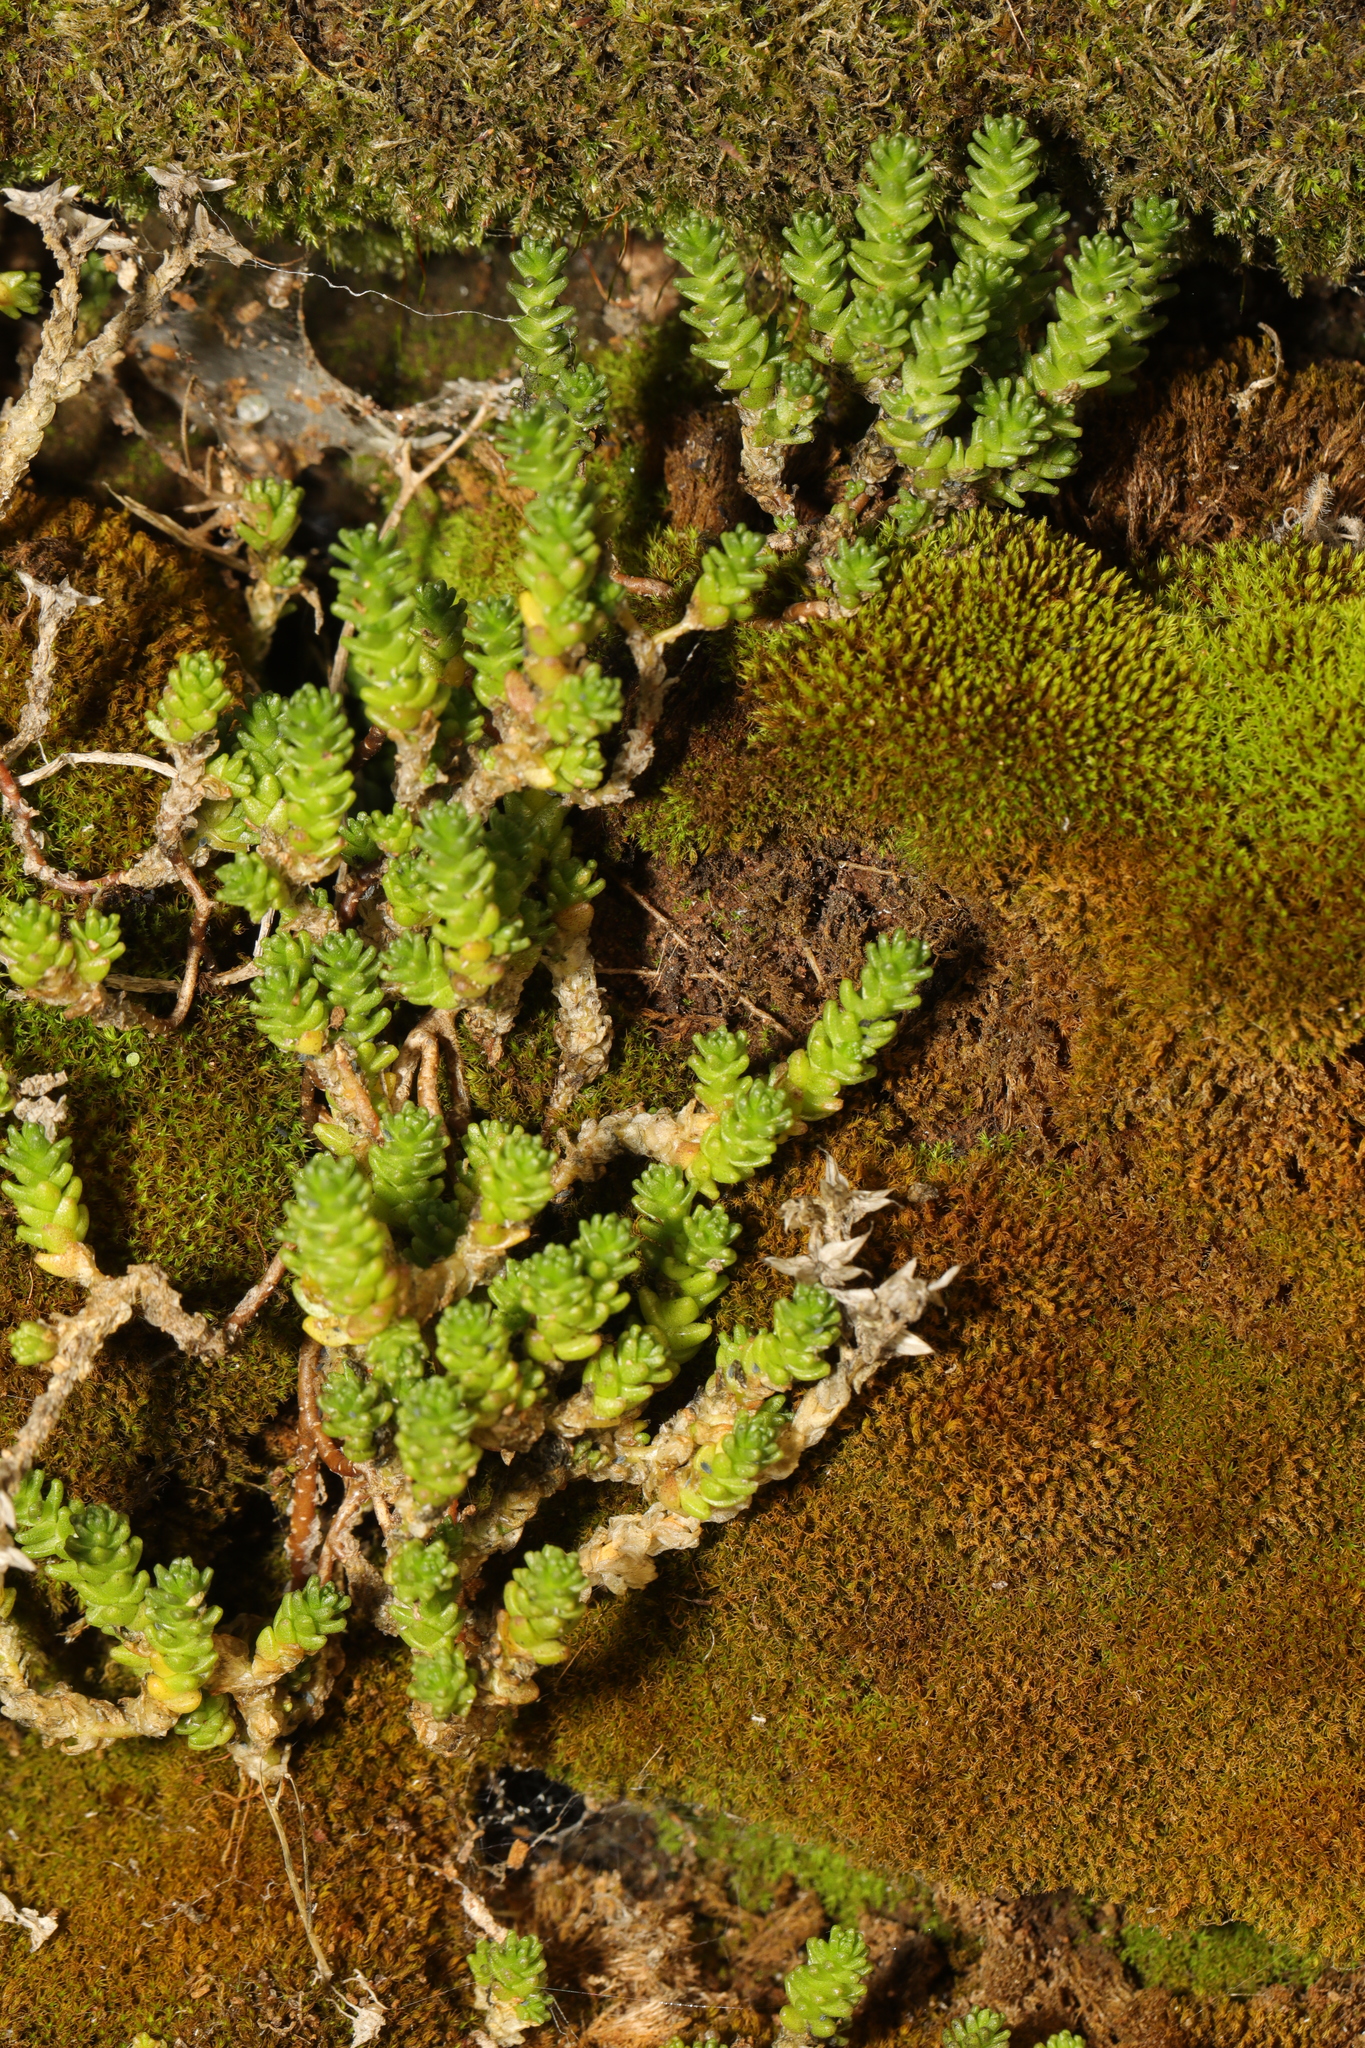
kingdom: Plantae
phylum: Tracheophyta
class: Magnoliopsida
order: Saxifragales
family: Crassulaceae
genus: Sedum
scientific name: Sedum acre
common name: Biting stonecrop
